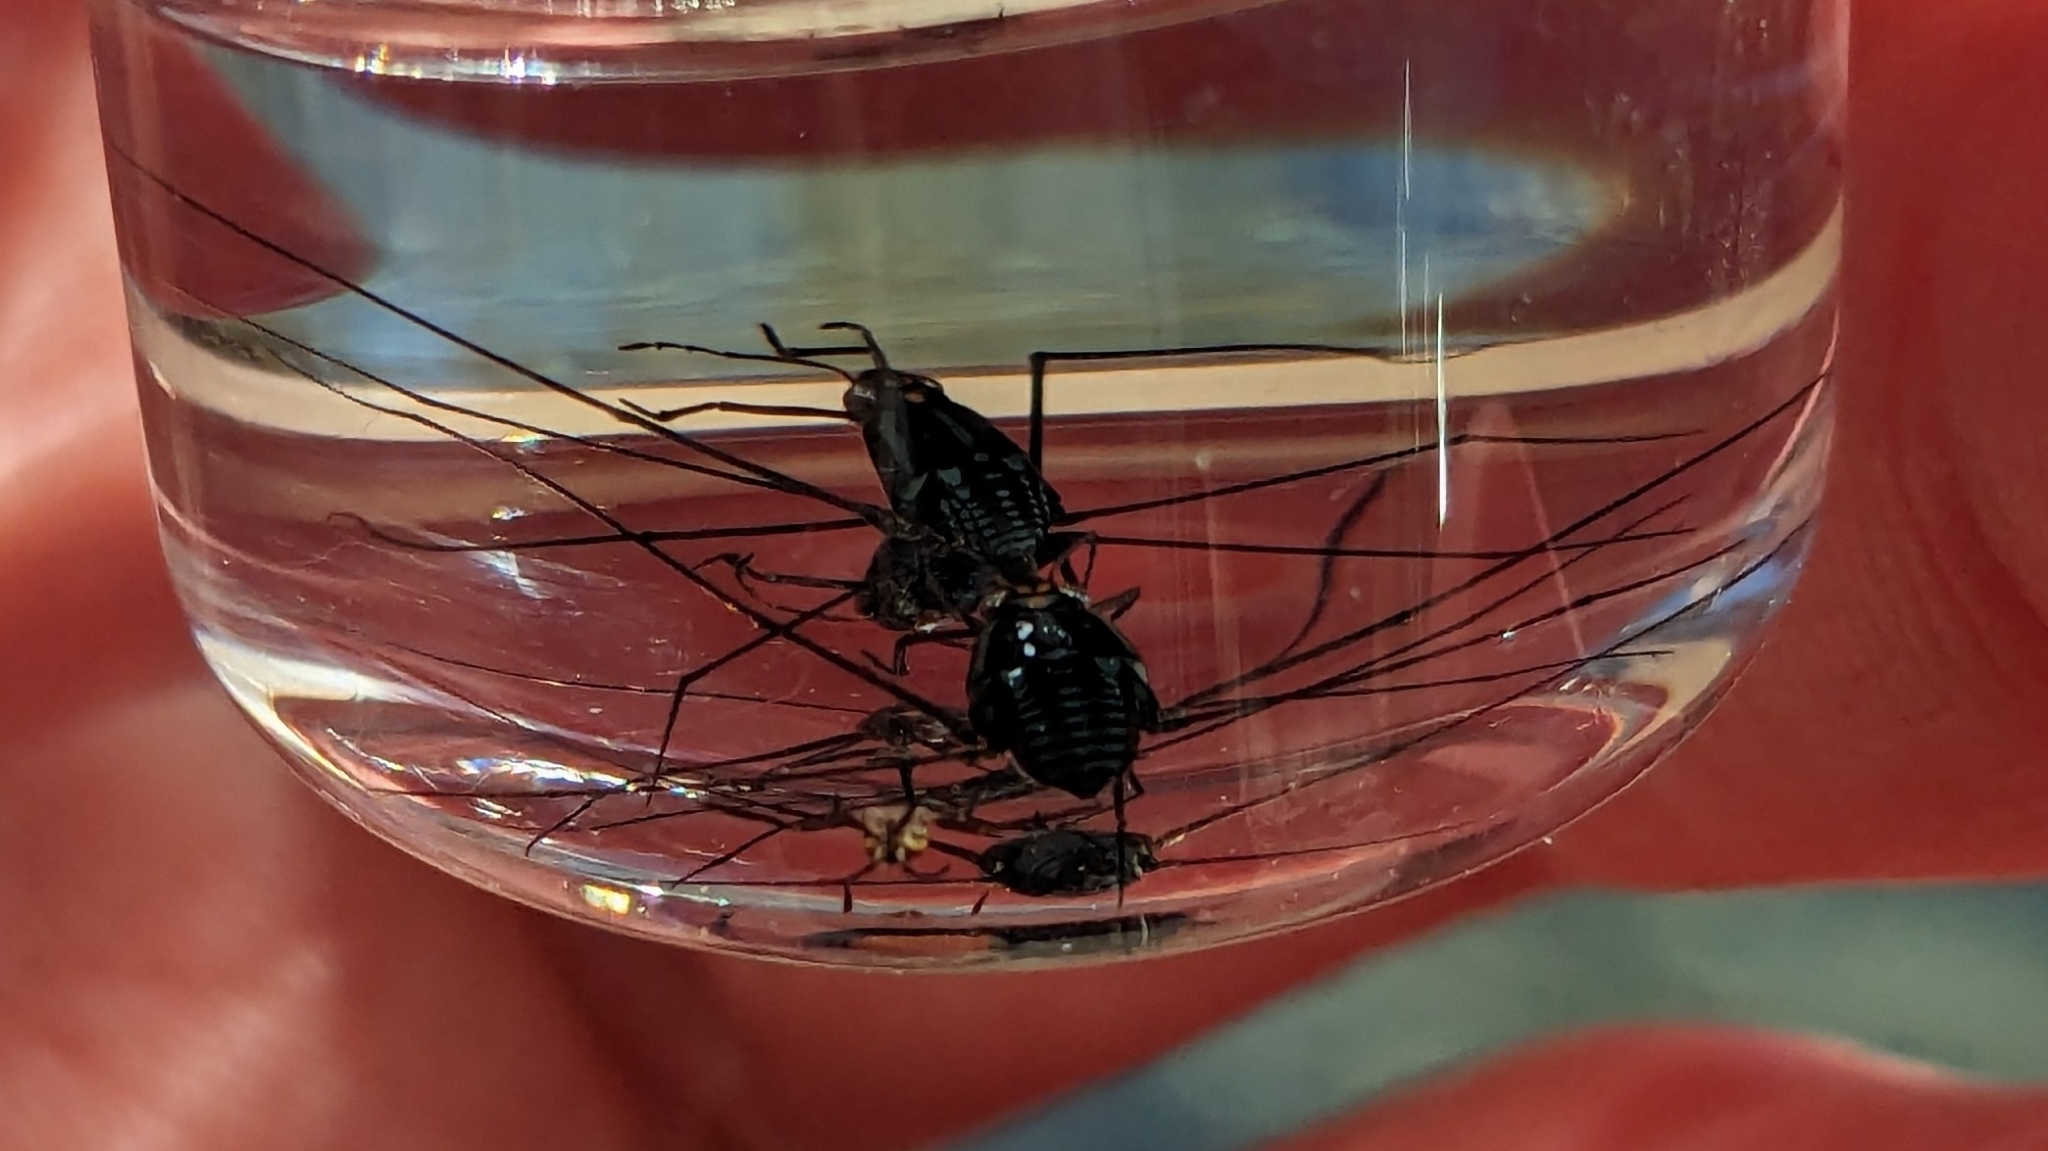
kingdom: Animalia
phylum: Arthropoda
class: Insecta
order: Hemiptera
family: Gerridae
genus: Metrobates
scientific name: Metrobates trux
